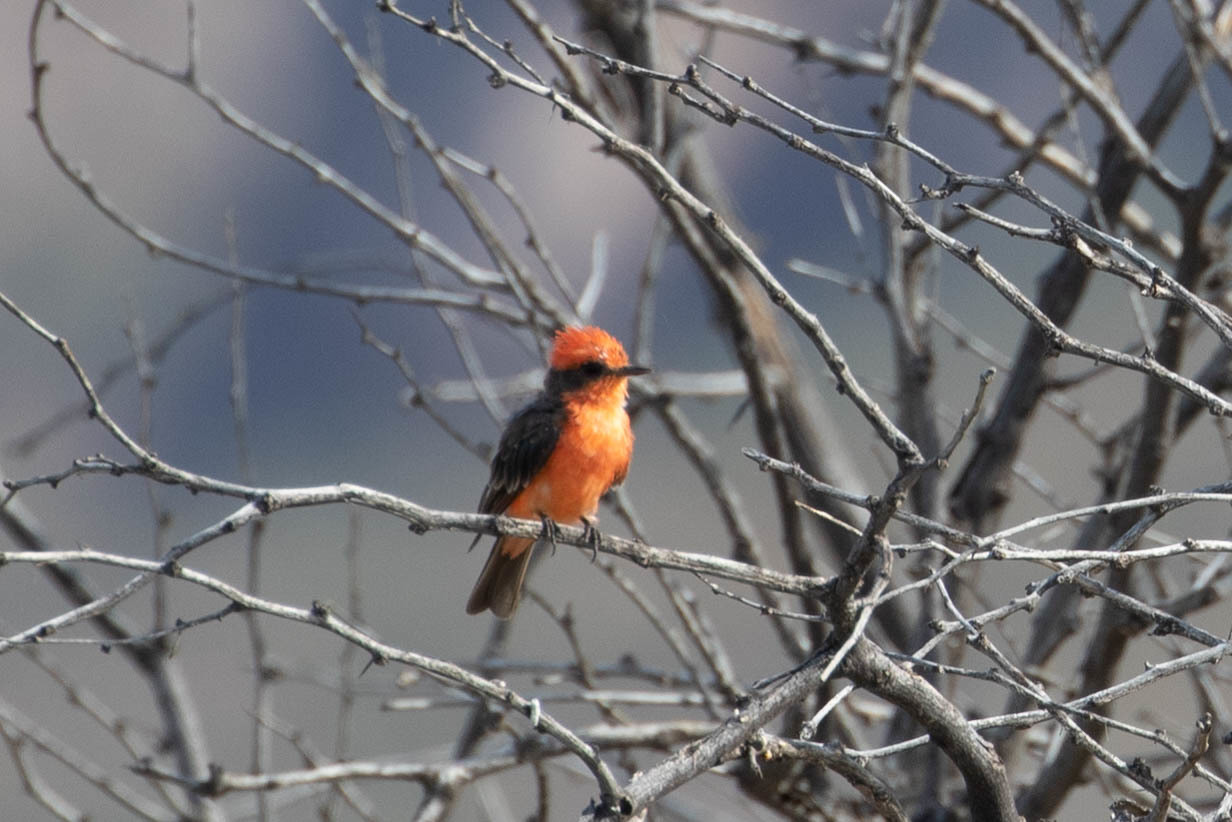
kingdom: Animalia
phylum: Chordata
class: Aves
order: Passeriformes
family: Tyrannidae
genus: Pyrocephalus
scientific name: Pyrocephalus rubinus
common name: Vermilion flycatcher
